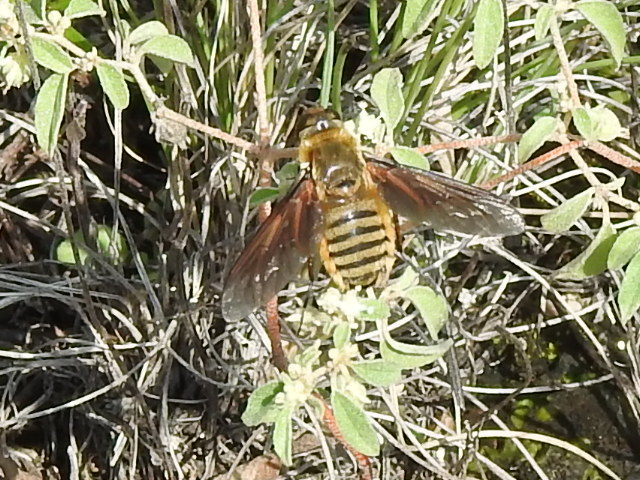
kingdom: Animalia
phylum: Arthropoda
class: Insecta
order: Diptera
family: Bombyliidae
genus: Poecilanthrax
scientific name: Poecilanthrax lucifer
